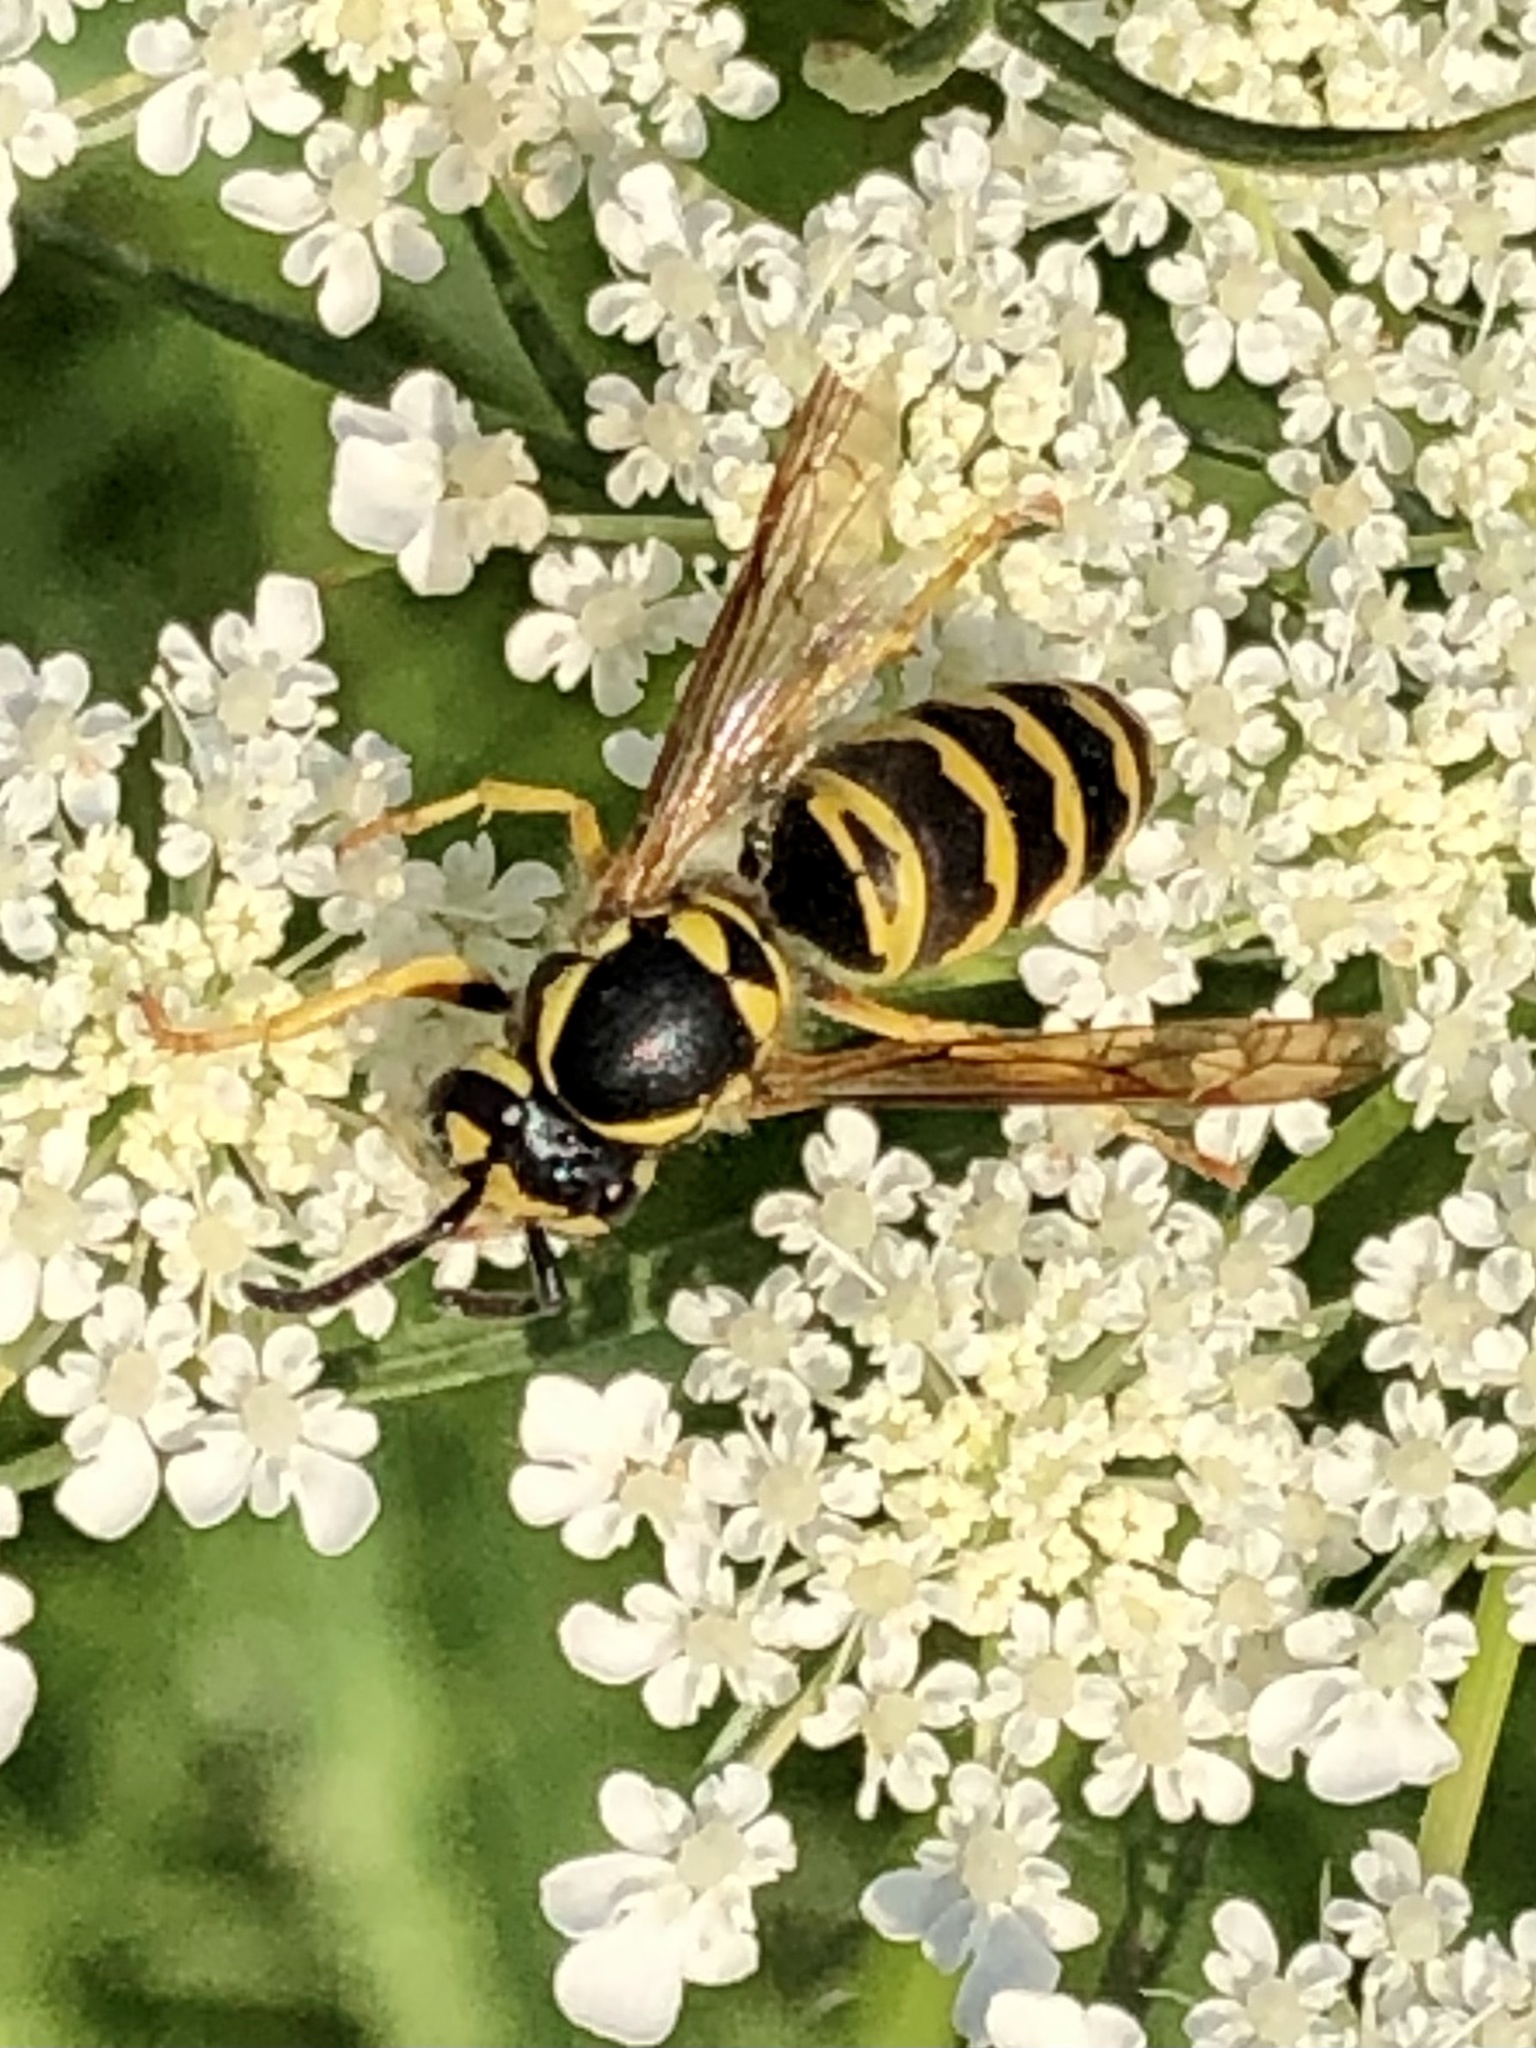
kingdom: Animalia
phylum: Arthropoda
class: Insecta
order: Hymenoptera
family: Vespidae
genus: Vespula
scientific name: Vespula maculifrons
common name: Eastern yellowjacket
